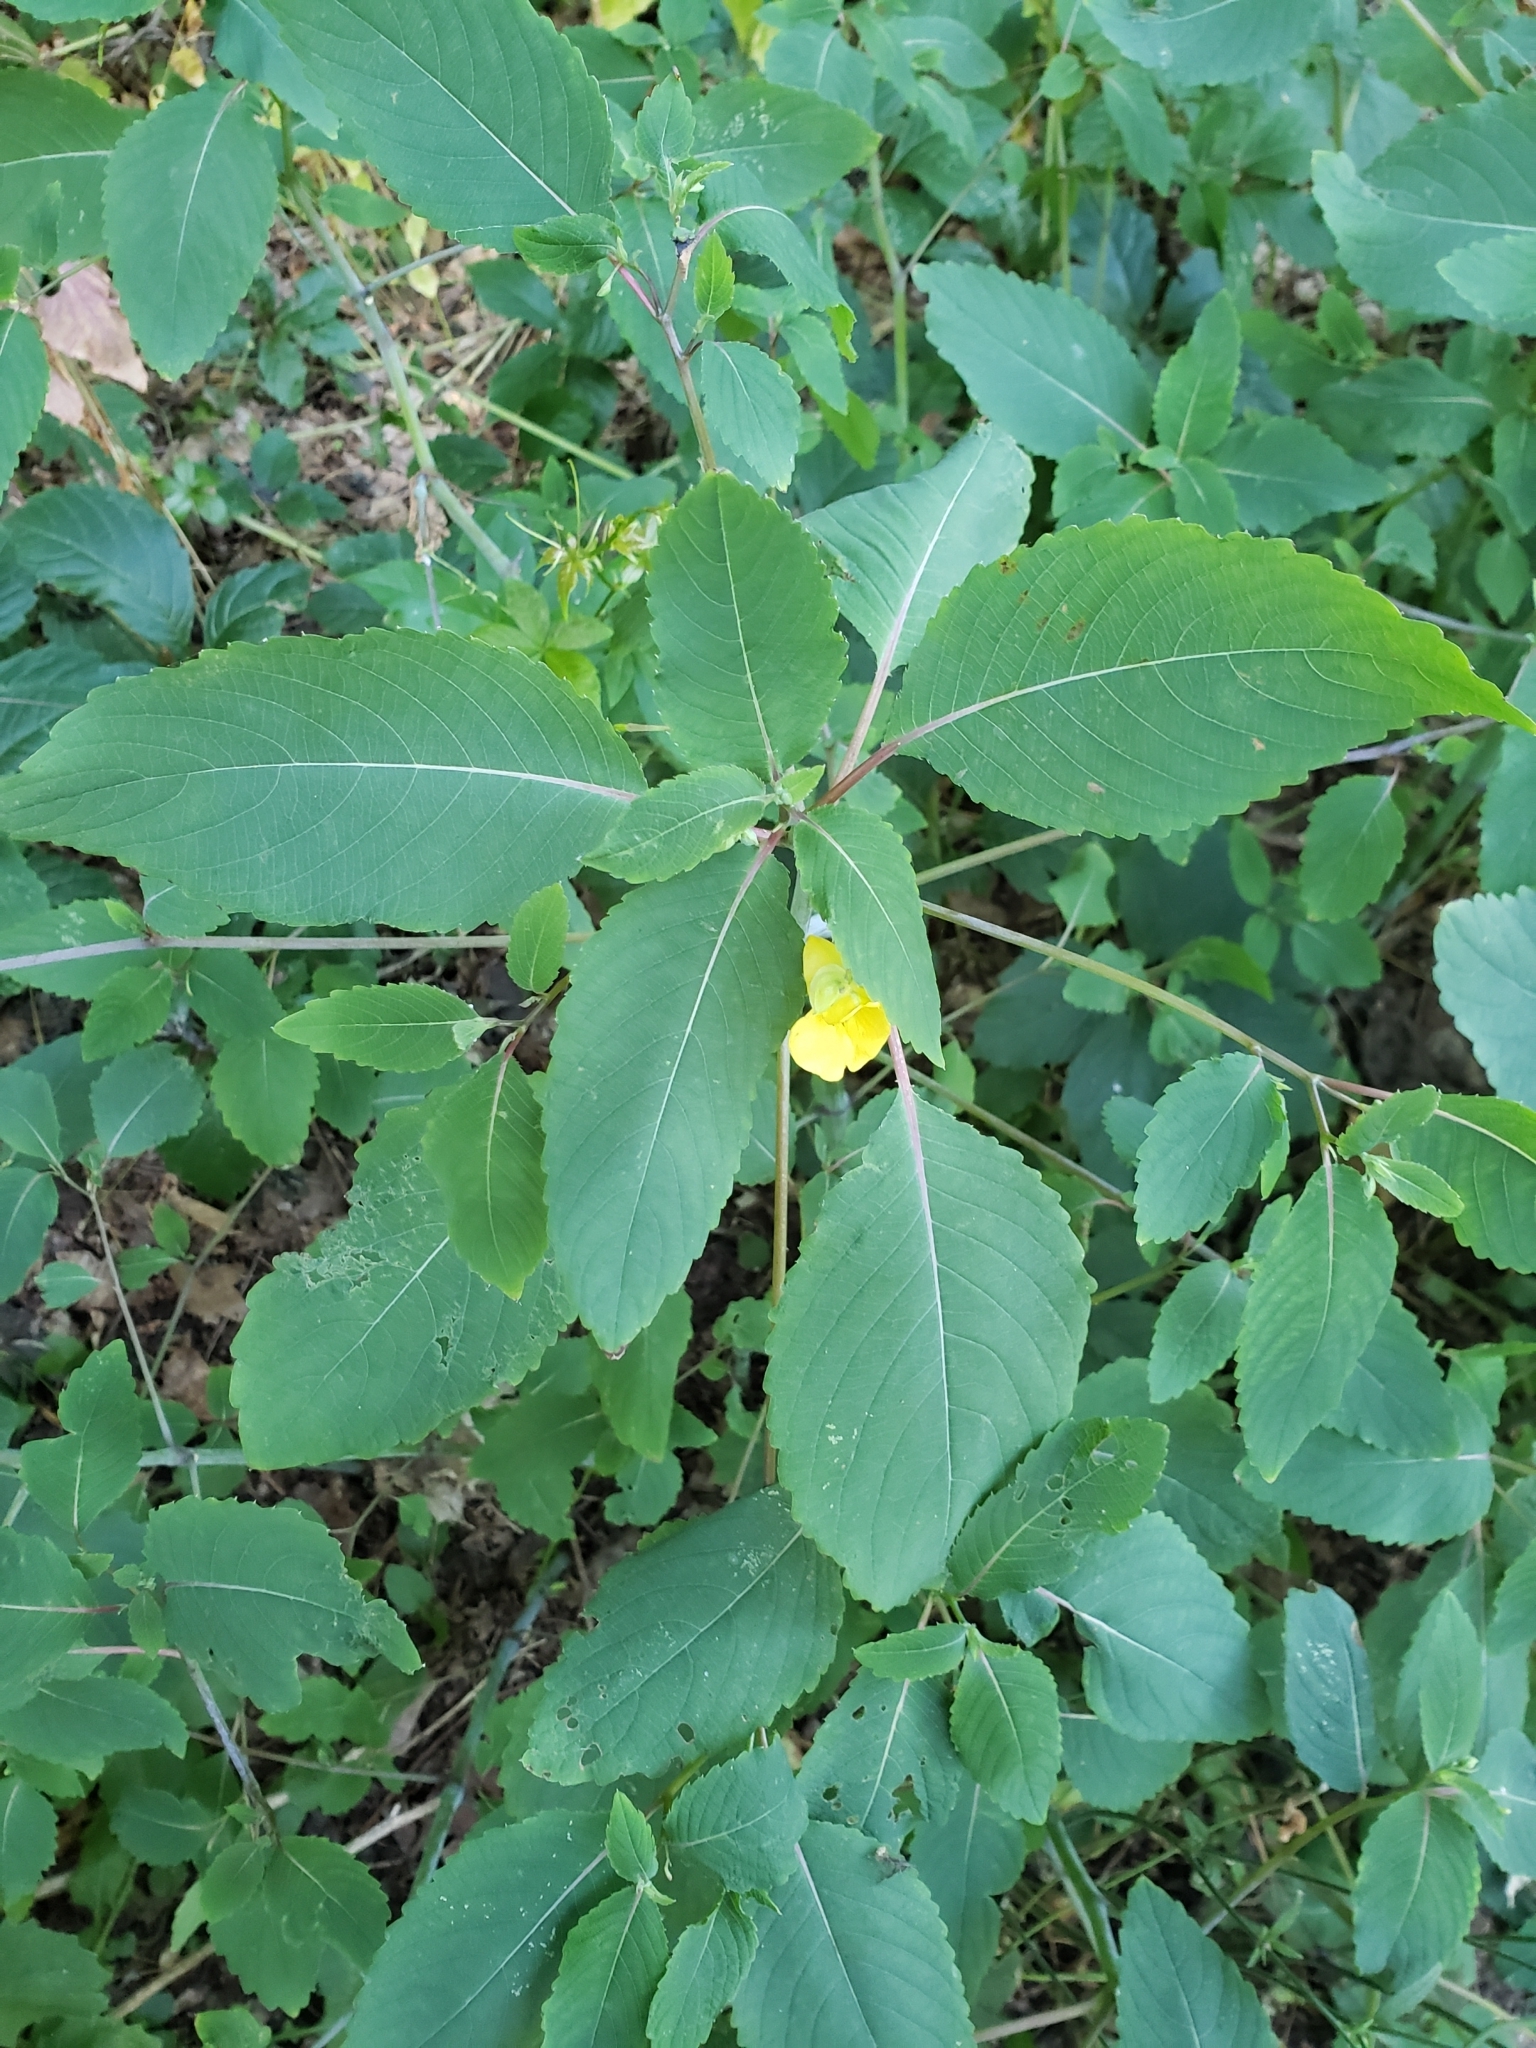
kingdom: Plantae
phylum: Tracheophyta
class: Magnoliopsida
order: Ericales
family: Balsaminaceae
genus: Impatiens
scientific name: Impatiens pallida
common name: Pale snapweed
